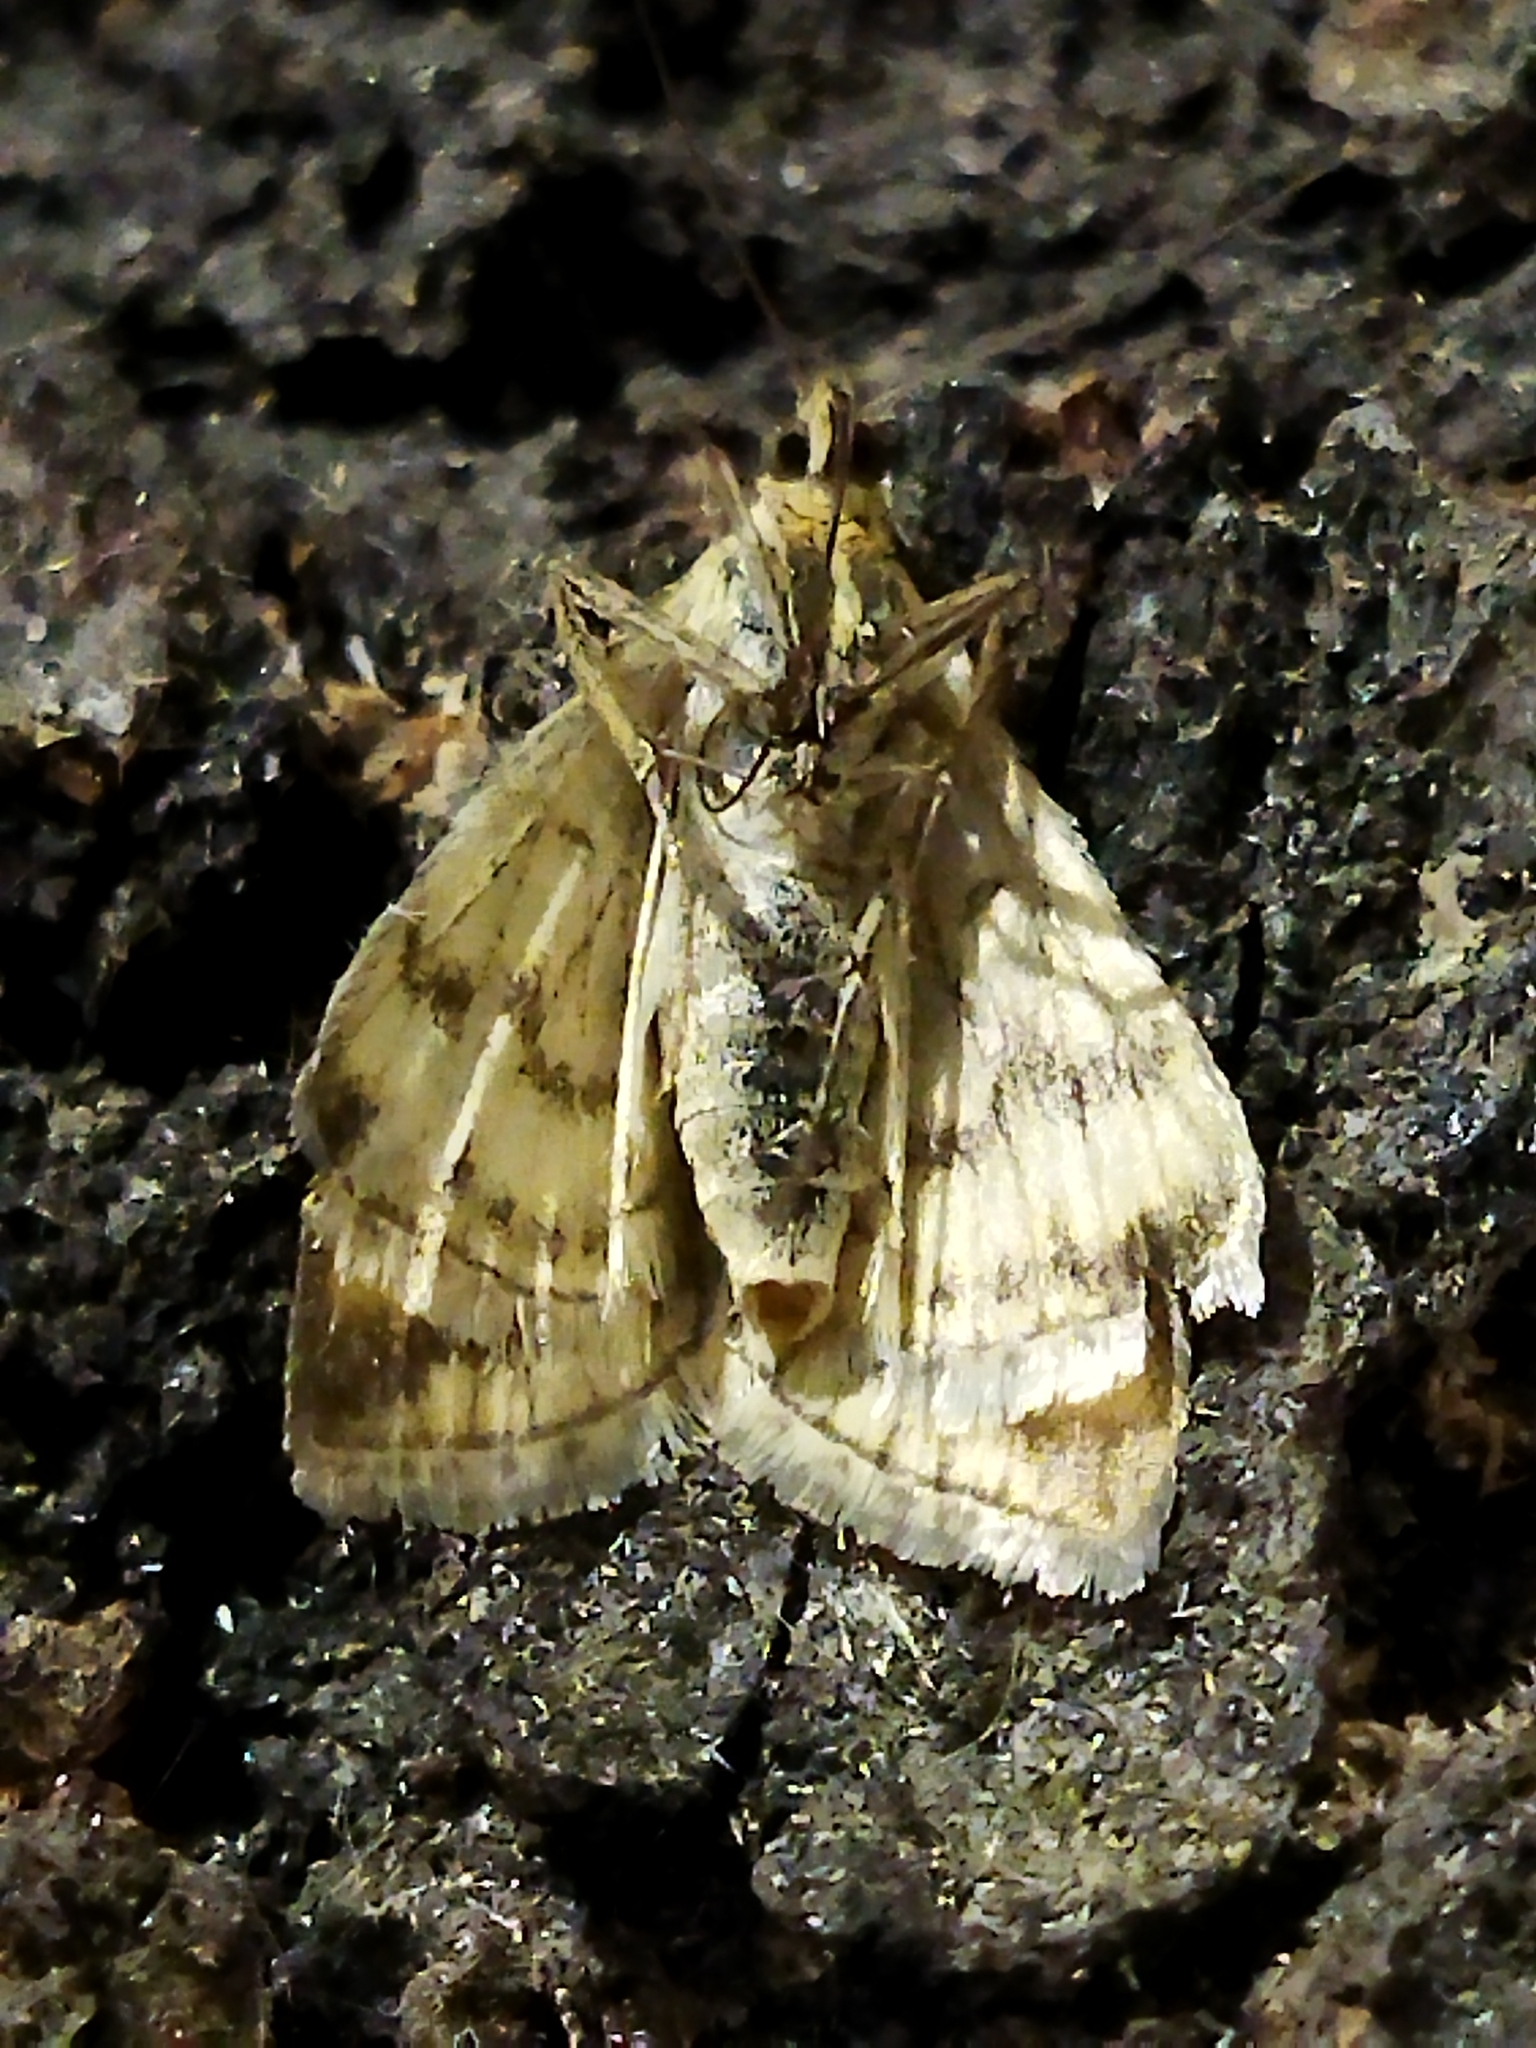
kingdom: Animalia
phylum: Arthropoda
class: Insecta
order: Lepidoptera
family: Crambidae
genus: Sitochroa
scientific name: Sitochroa verticalis
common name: Lesser pearl
